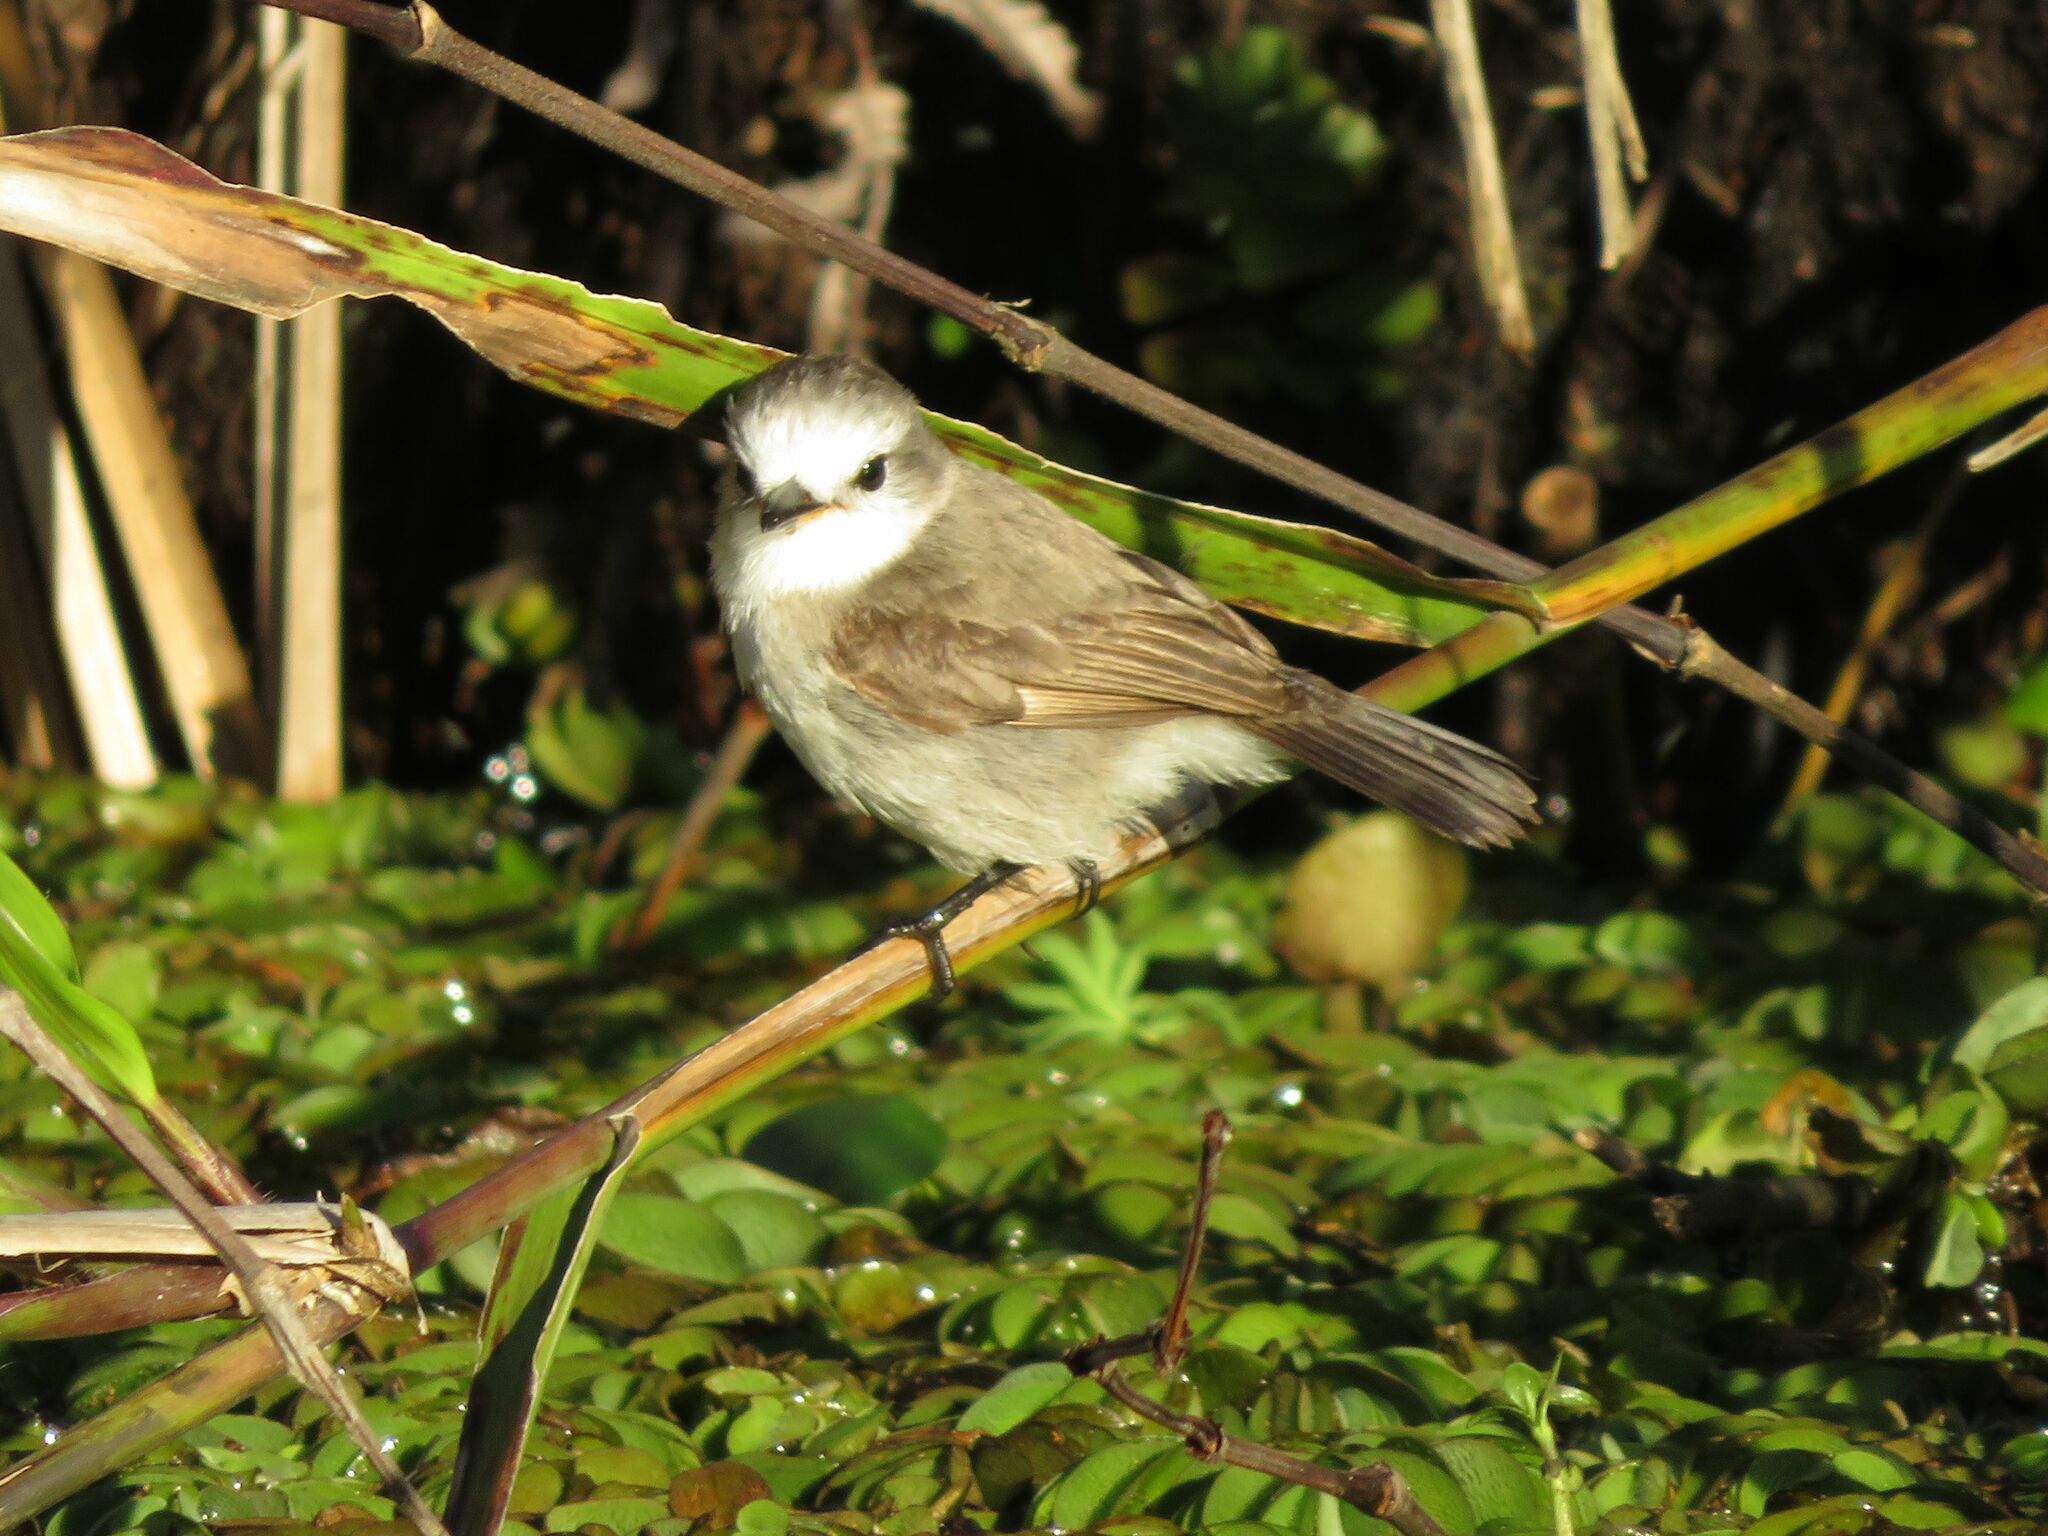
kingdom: Animalia
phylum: Chordata
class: Aves
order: Passeriformes
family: Tyrannidae
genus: Arundinicola
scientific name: Arundinicola leucocephala
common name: White-headed marsh tyrant
